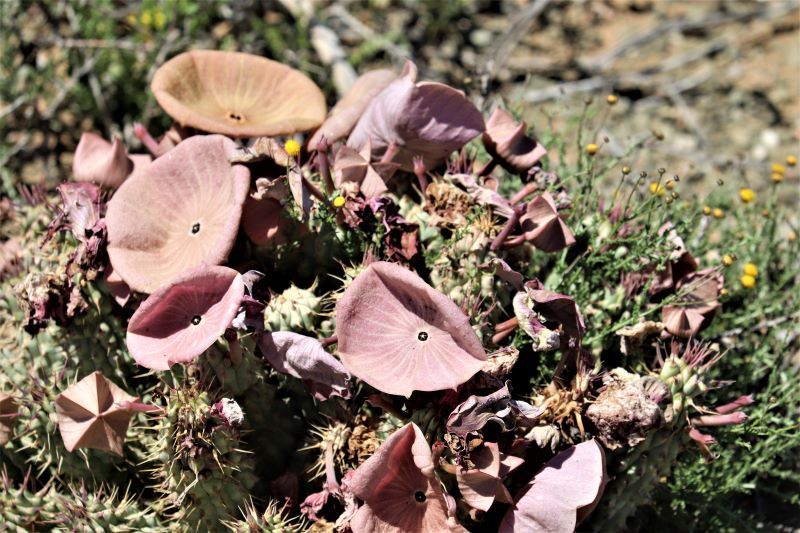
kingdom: Plantae
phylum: Tracheophyta
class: Magnoliopsida
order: Gentianales
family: Apocynaceae
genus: Hoodia
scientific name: Hoodia gordonii
